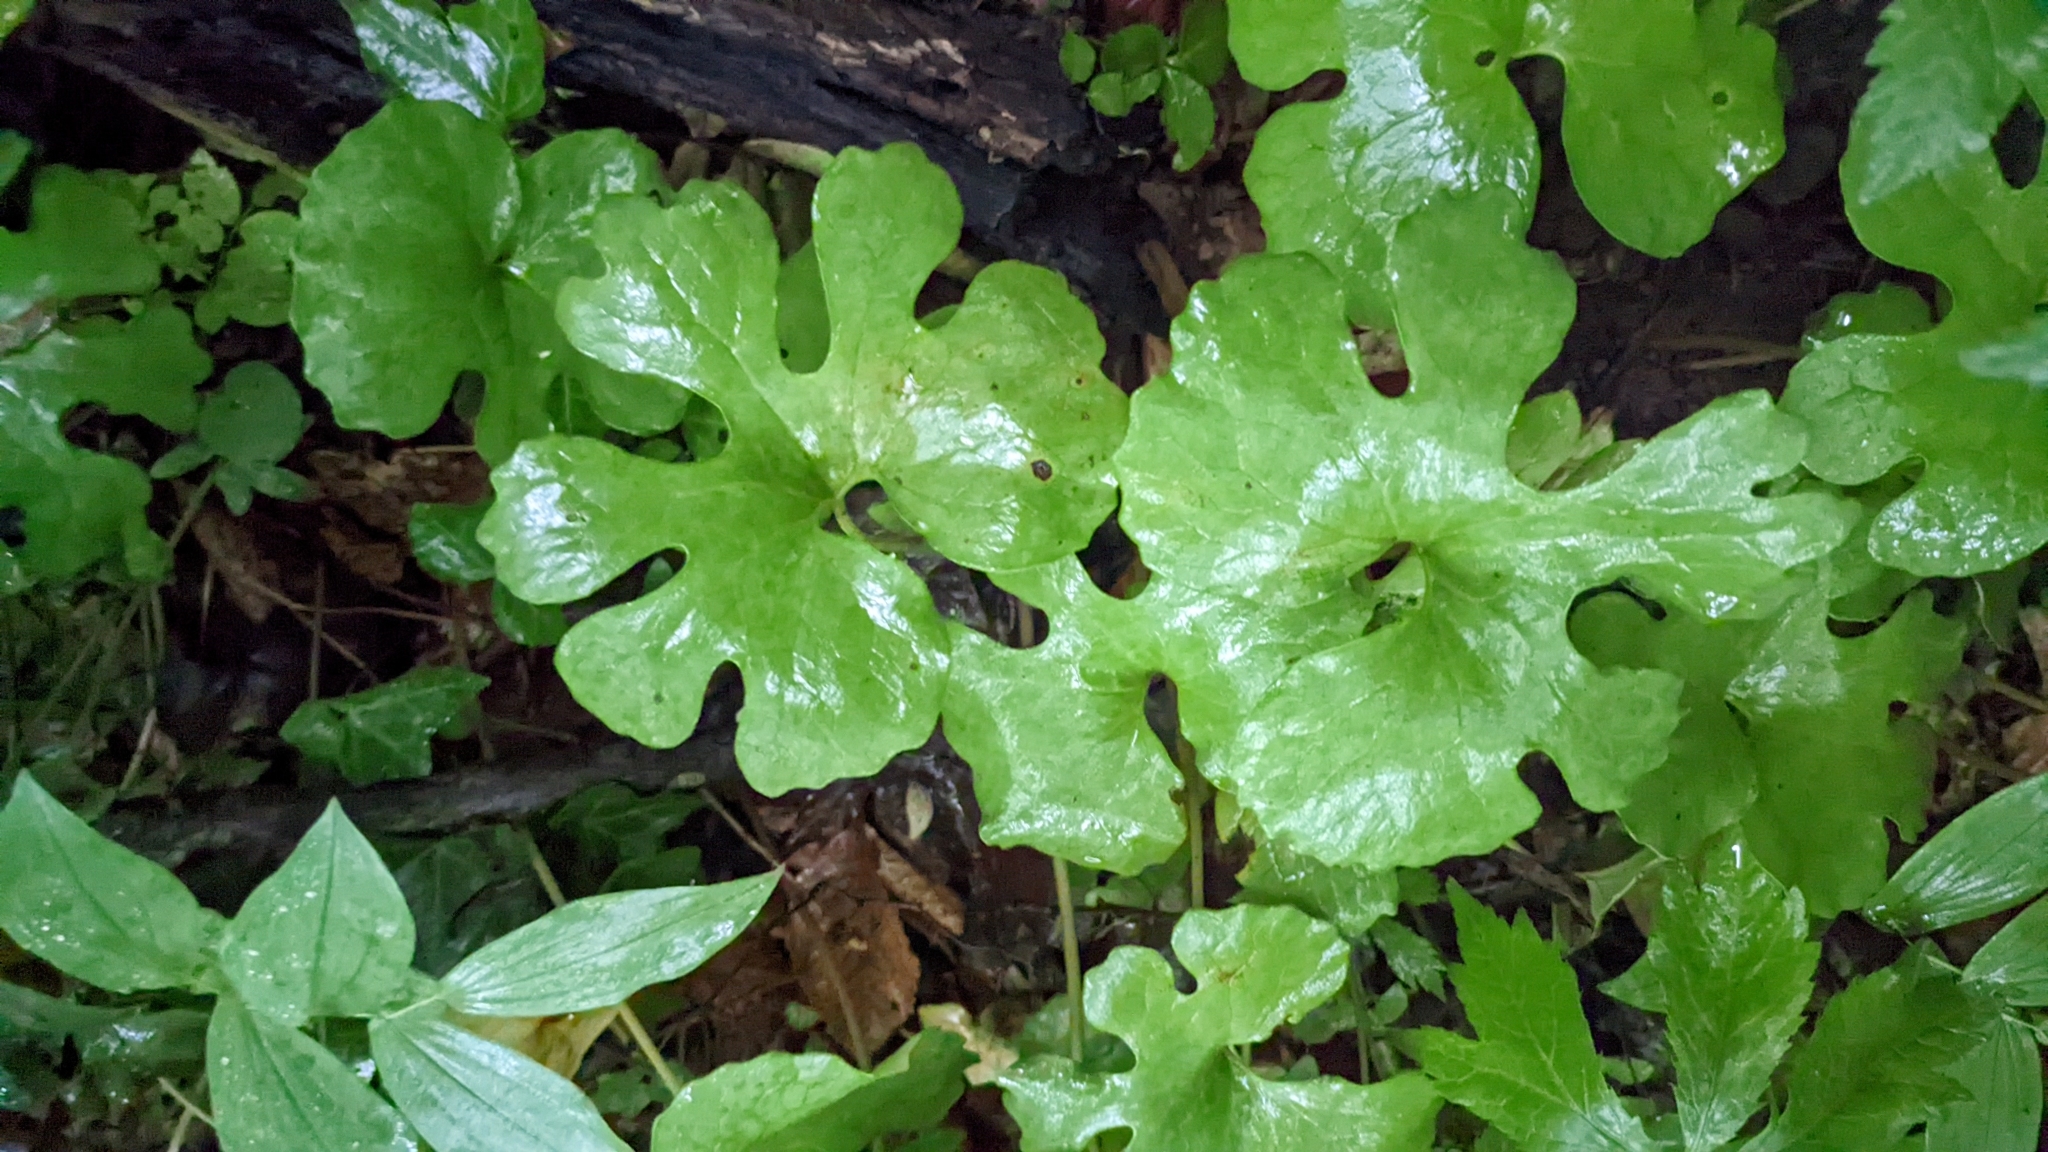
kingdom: Plantae
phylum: Tracheophyta
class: Magnoliopsida
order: Ranunculales
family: Papaveraceae
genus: Sanguinaria
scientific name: Sanguinaria canadensis
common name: Bloodroot
